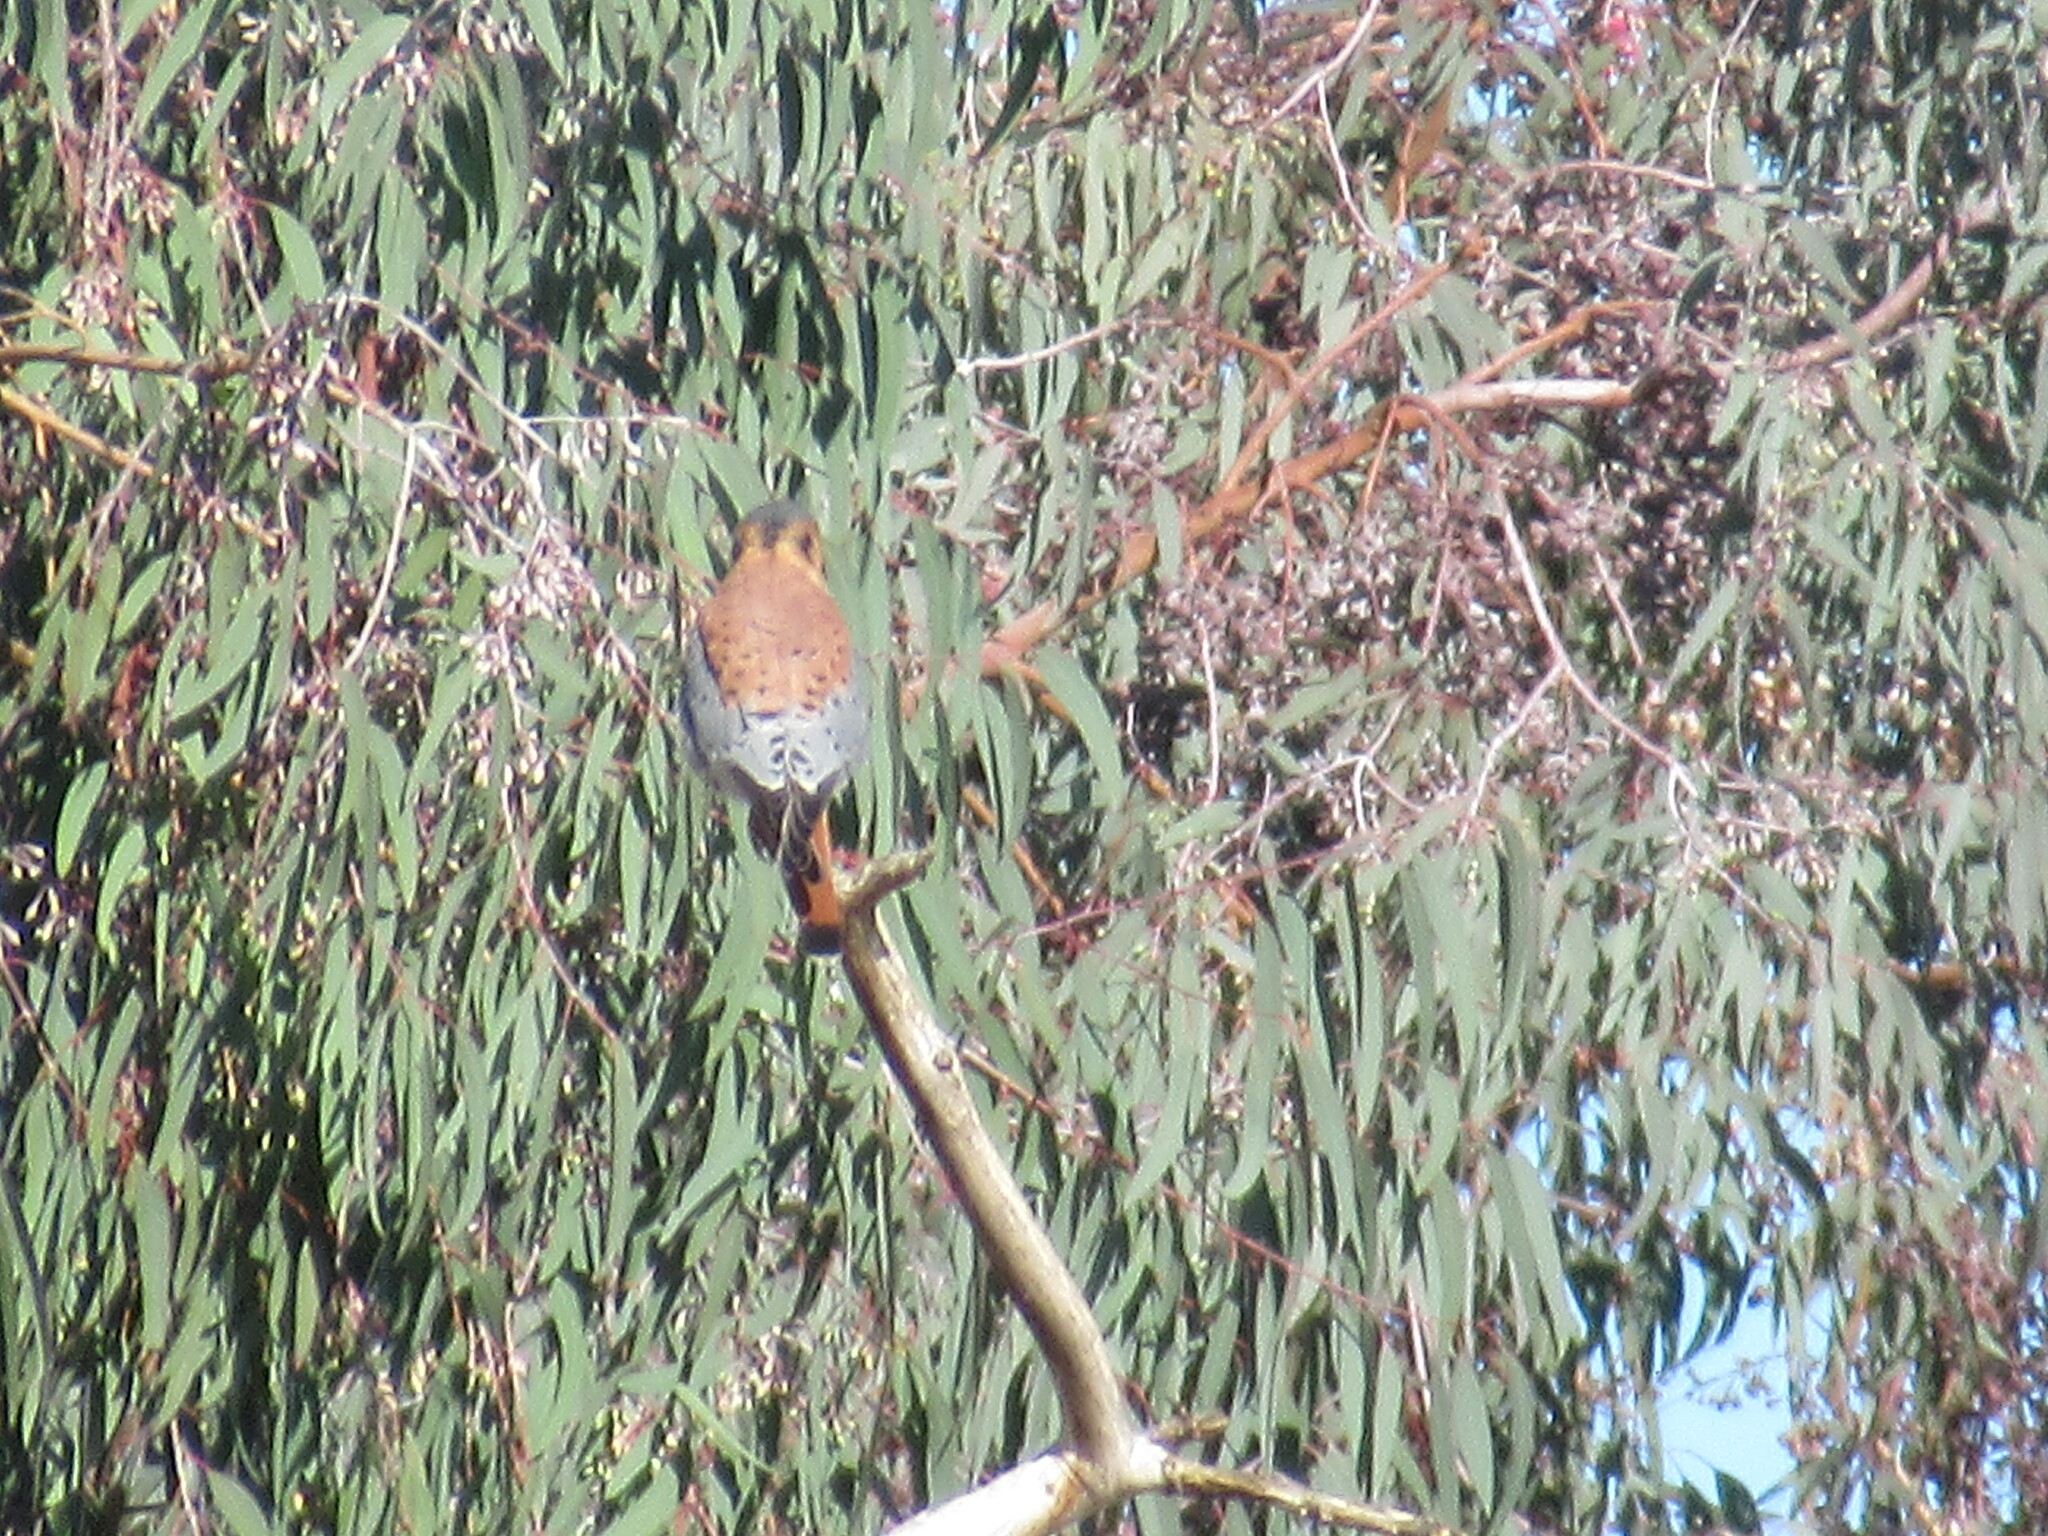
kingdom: Animalia
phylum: Chordata
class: Aves
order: Falconiformes
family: Falconidae
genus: Falco
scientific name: Falco sparverius
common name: American kestrel
